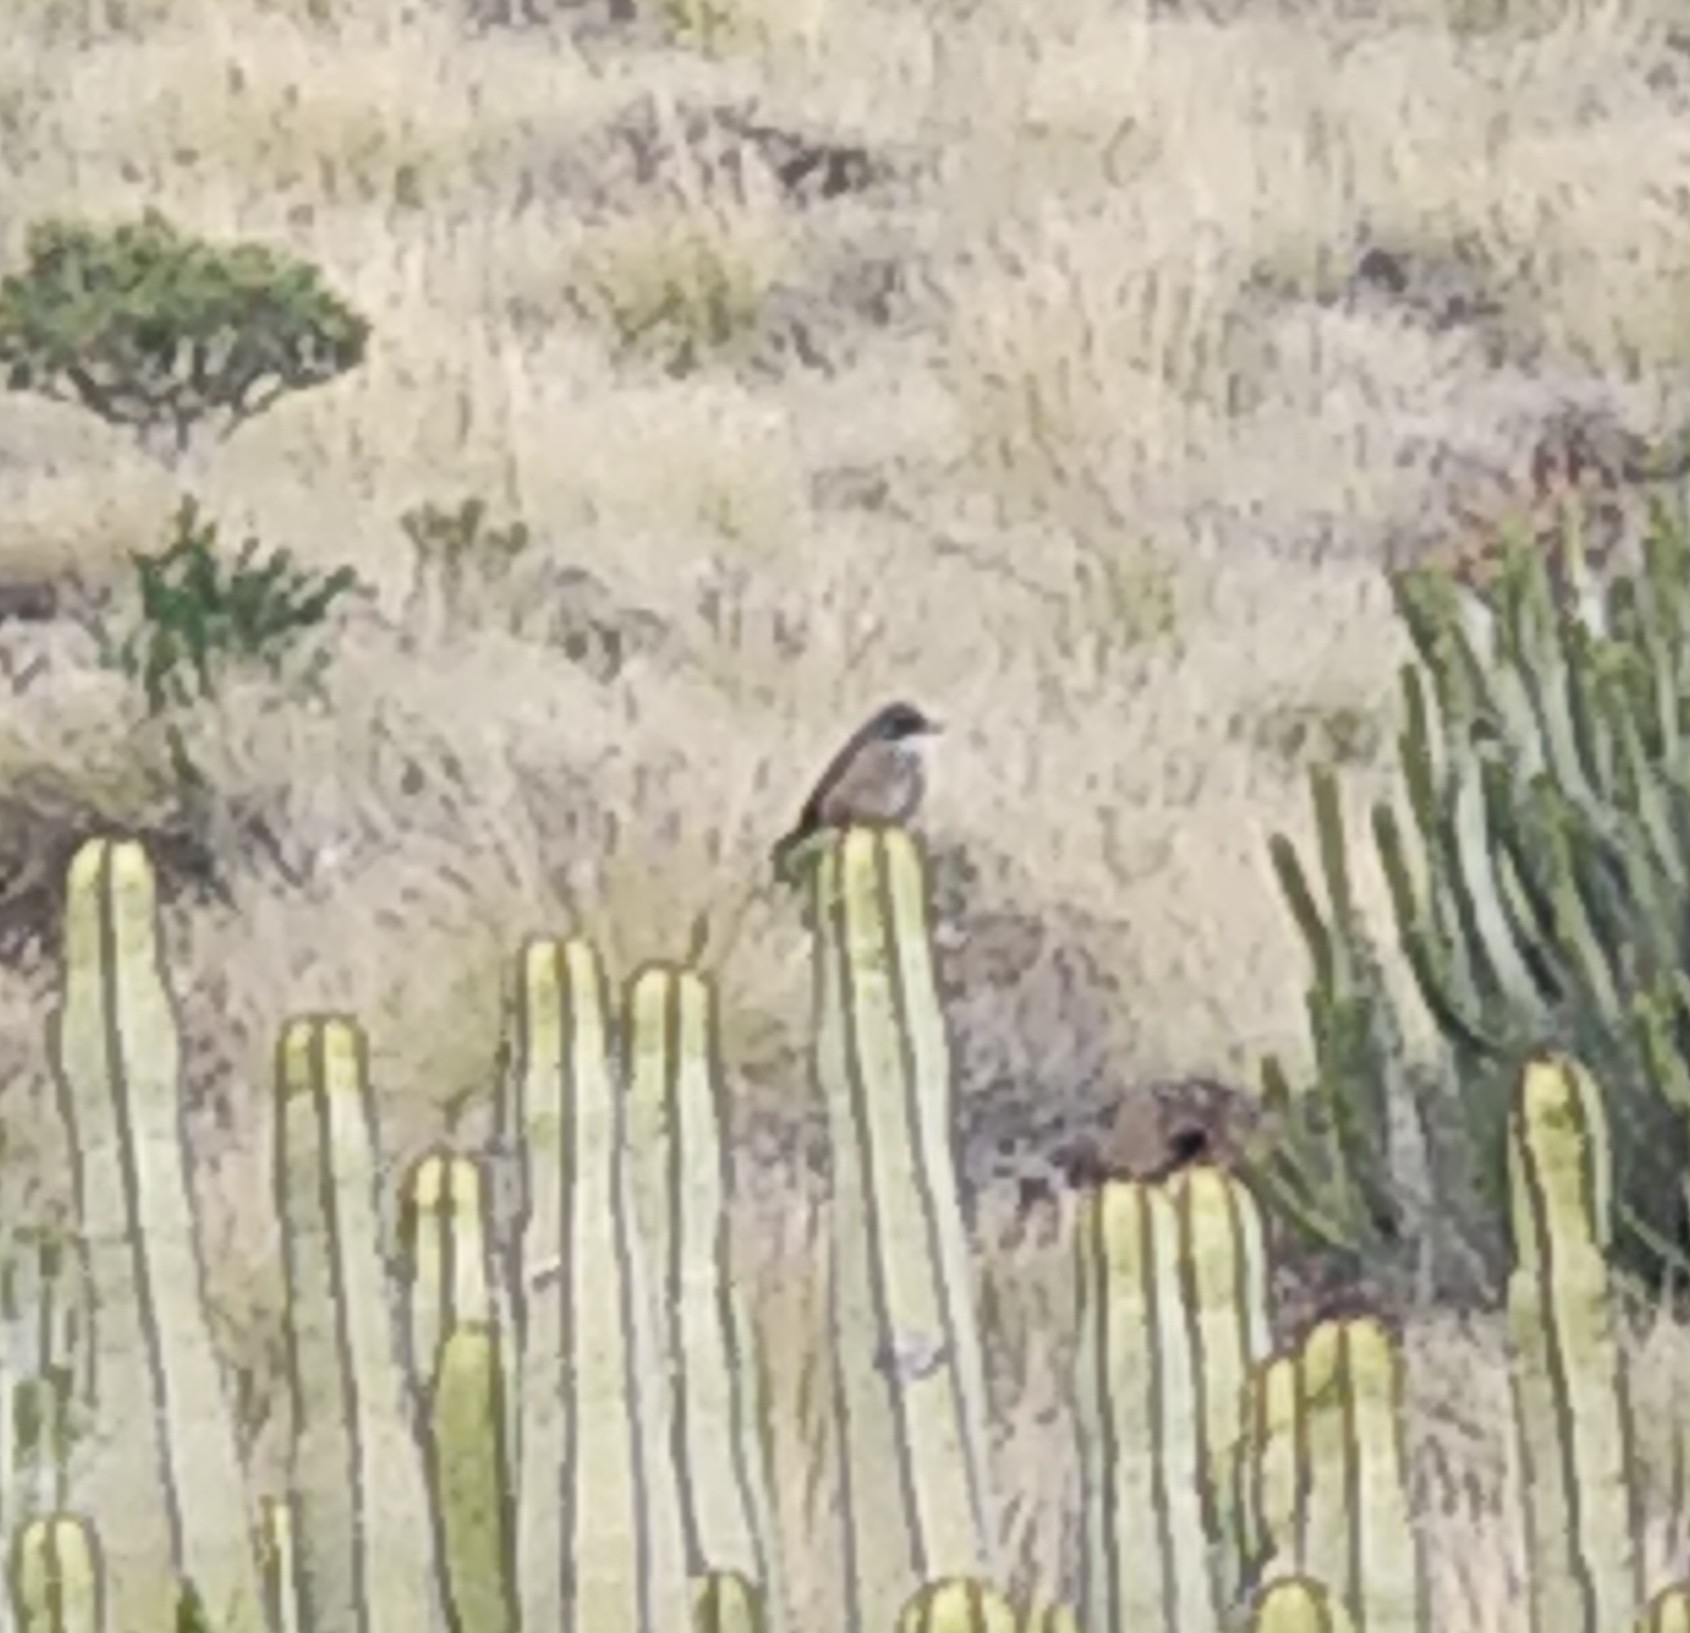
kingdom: Animalia
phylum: Chordata
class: Aves
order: Passeriformes
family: Sylviidae
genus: Sylvia
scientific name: Sylvia conspicillata
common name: Spectacled warbler
